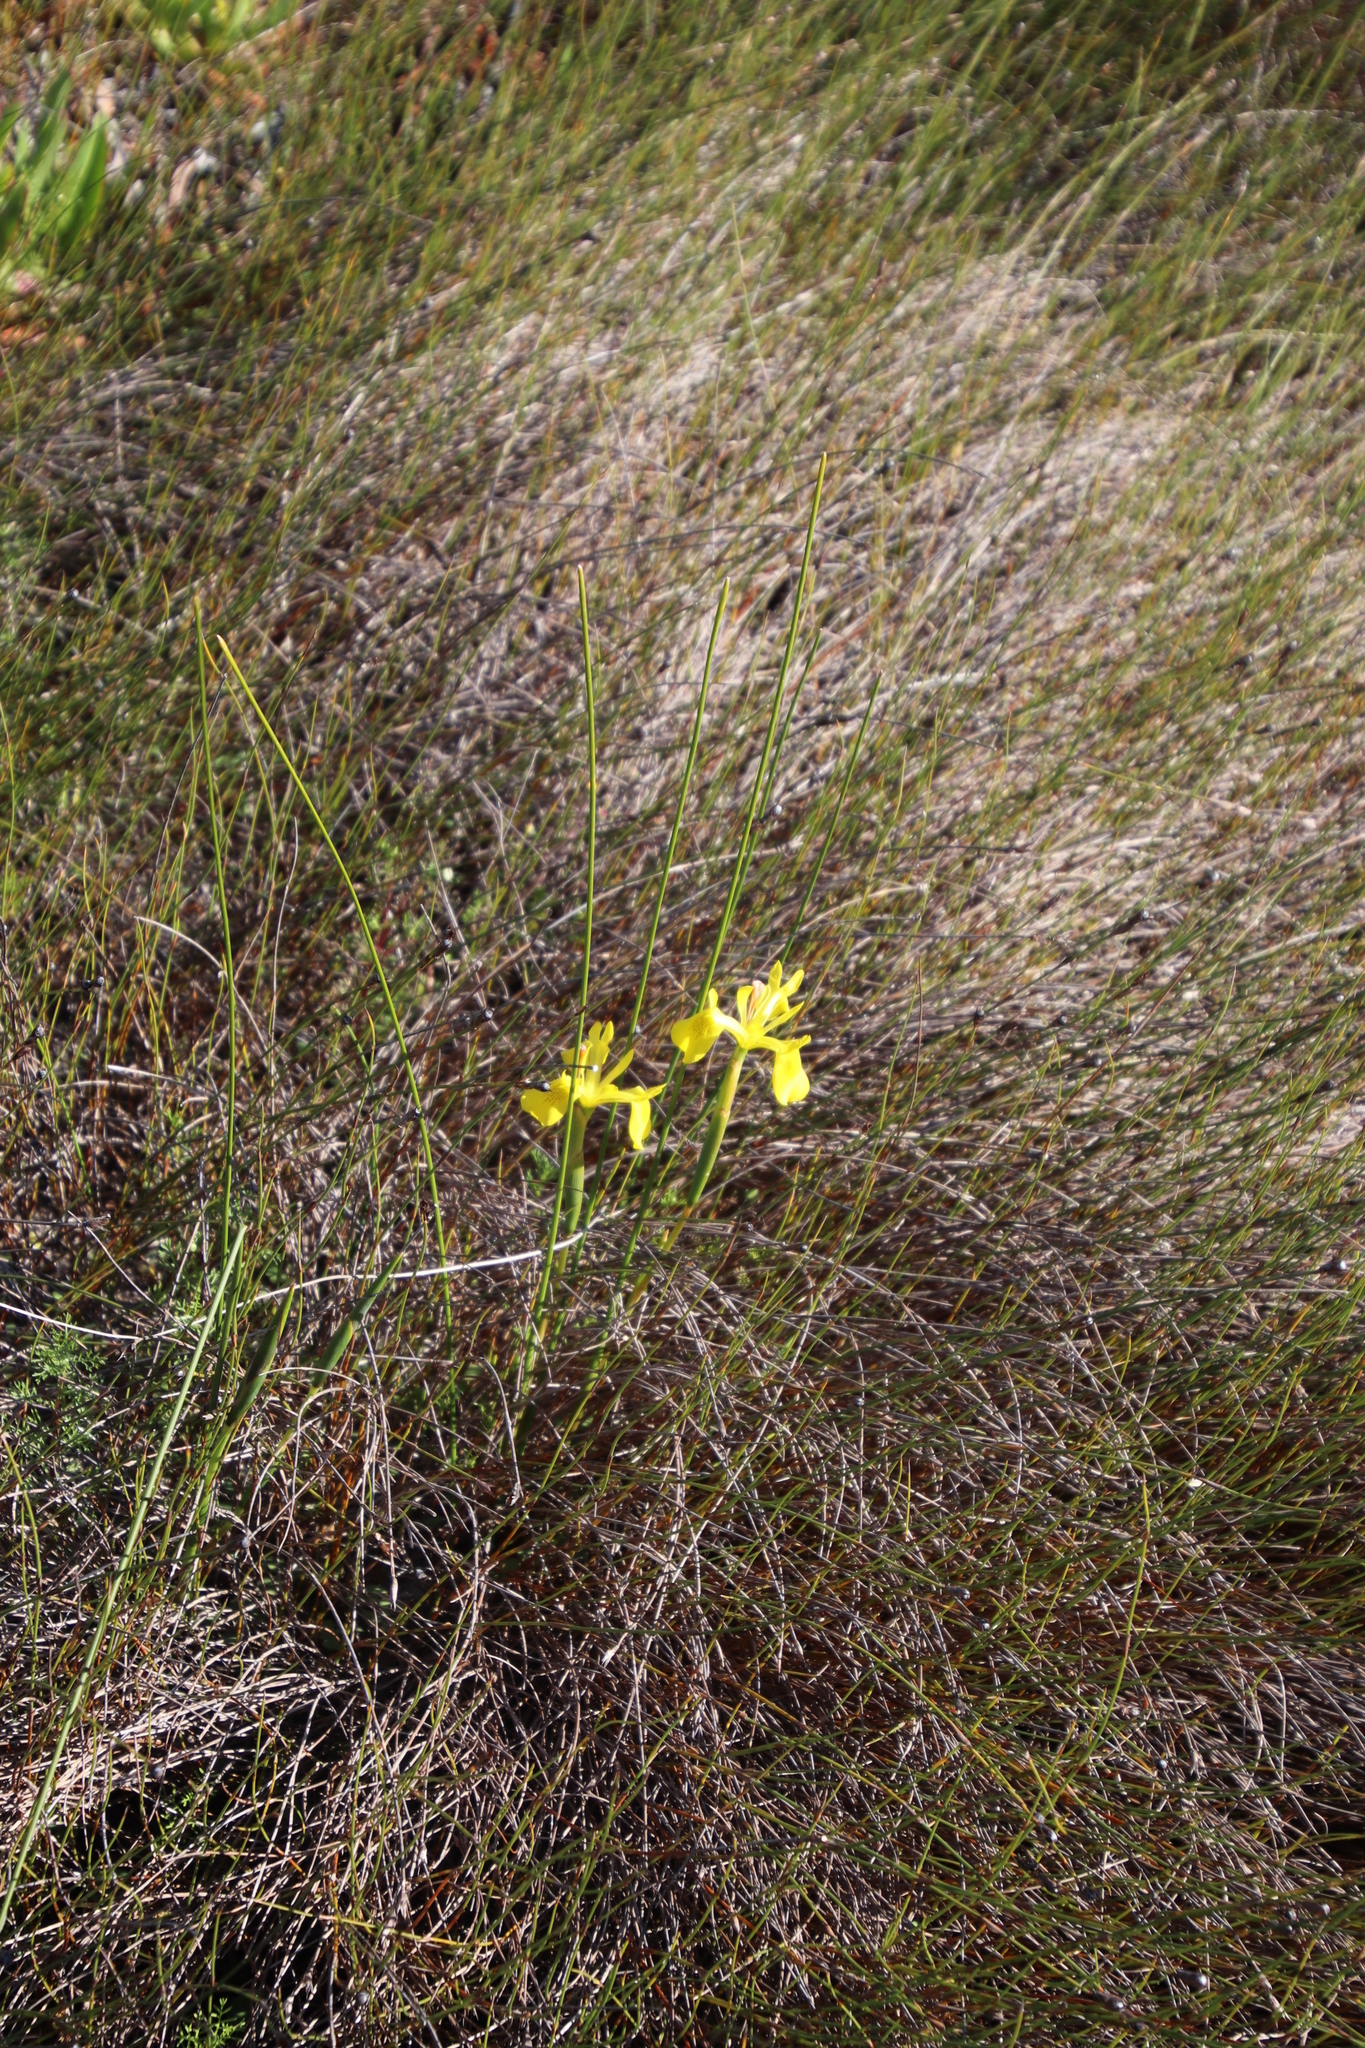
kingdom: Plantae
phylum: Tracheophyta
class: Liliopsida
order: Asparagales
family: Iridaceae
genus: Moraea
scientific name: Moraea neglecta
